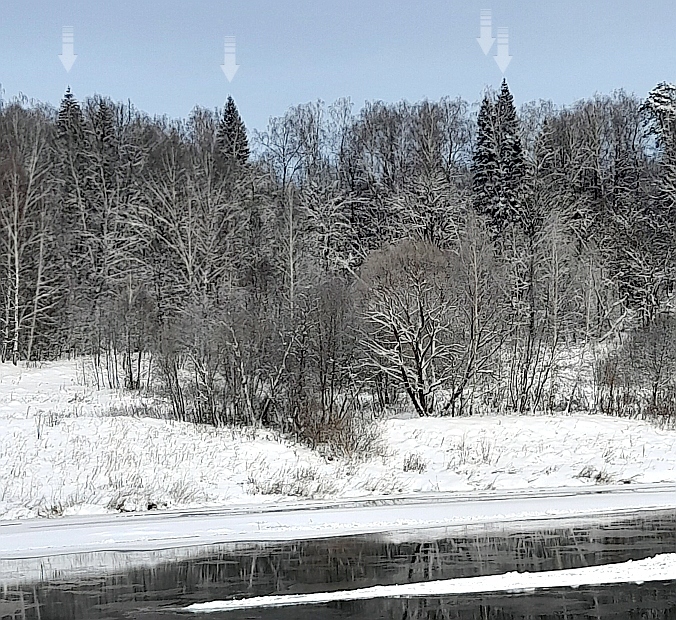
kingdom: Plantae
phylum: Tracheophyta
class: Pinopsida
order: Pinales
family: Pinaceae
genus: Picea
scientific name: Picea abies
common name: Norway spruce
